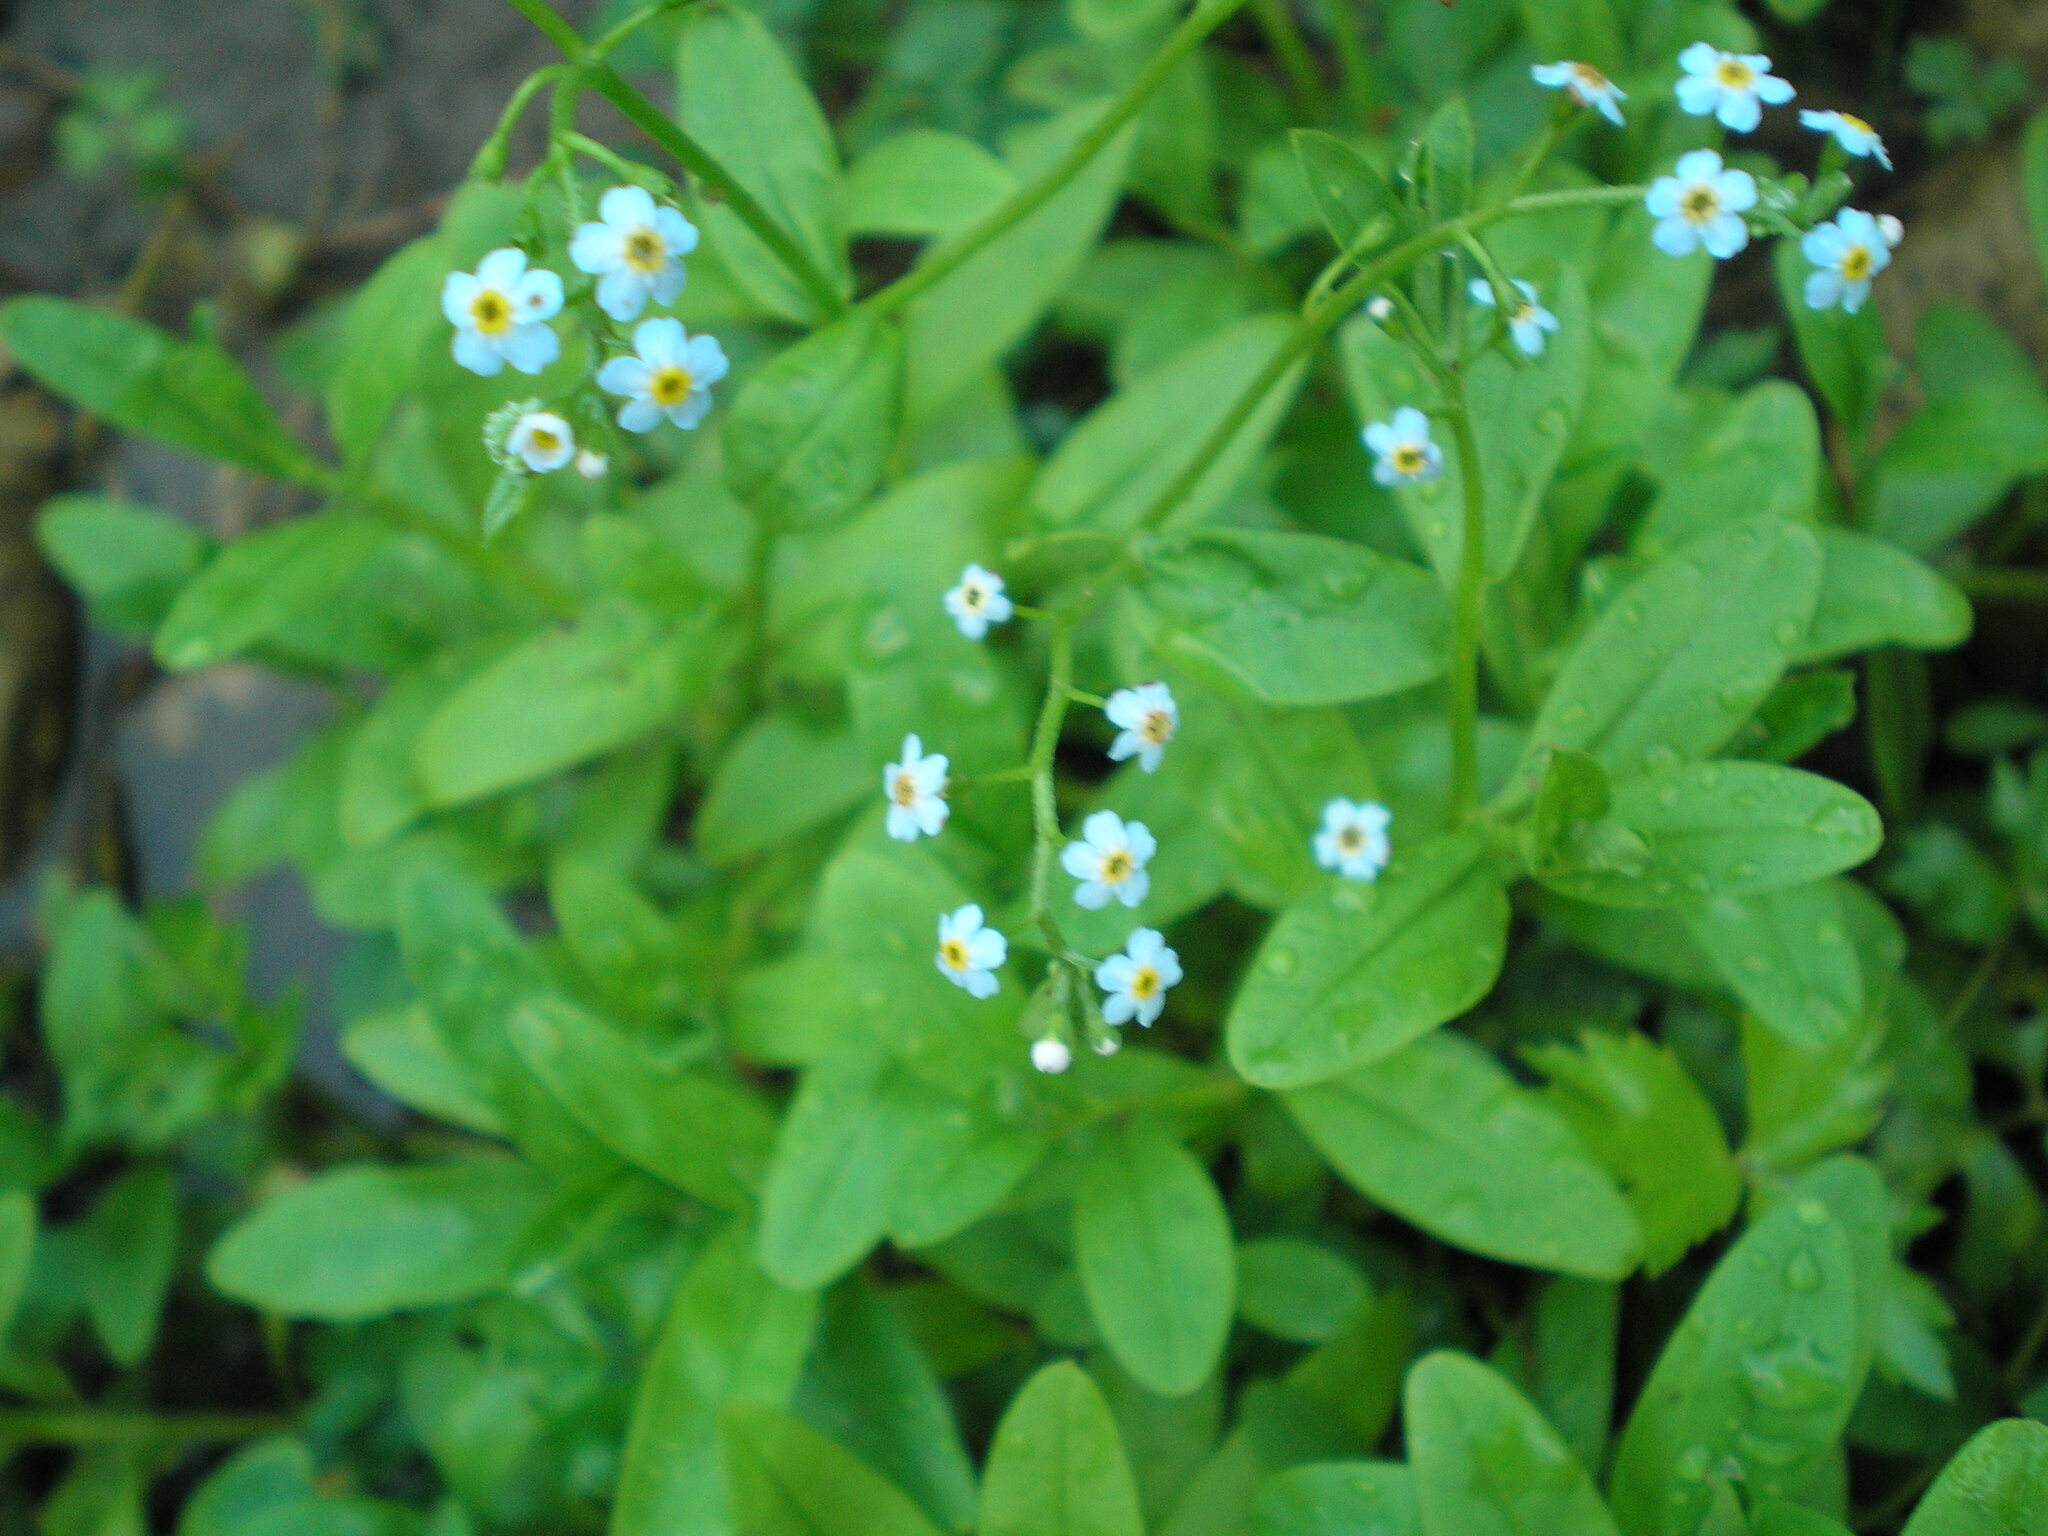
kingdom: Plantae
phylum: Tracheophyta
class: Magnoliopsida
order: Boraginales
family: Boraginaceae
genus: Myosotis
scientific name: Myosotis scorpioides
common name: Water forget-me-not
